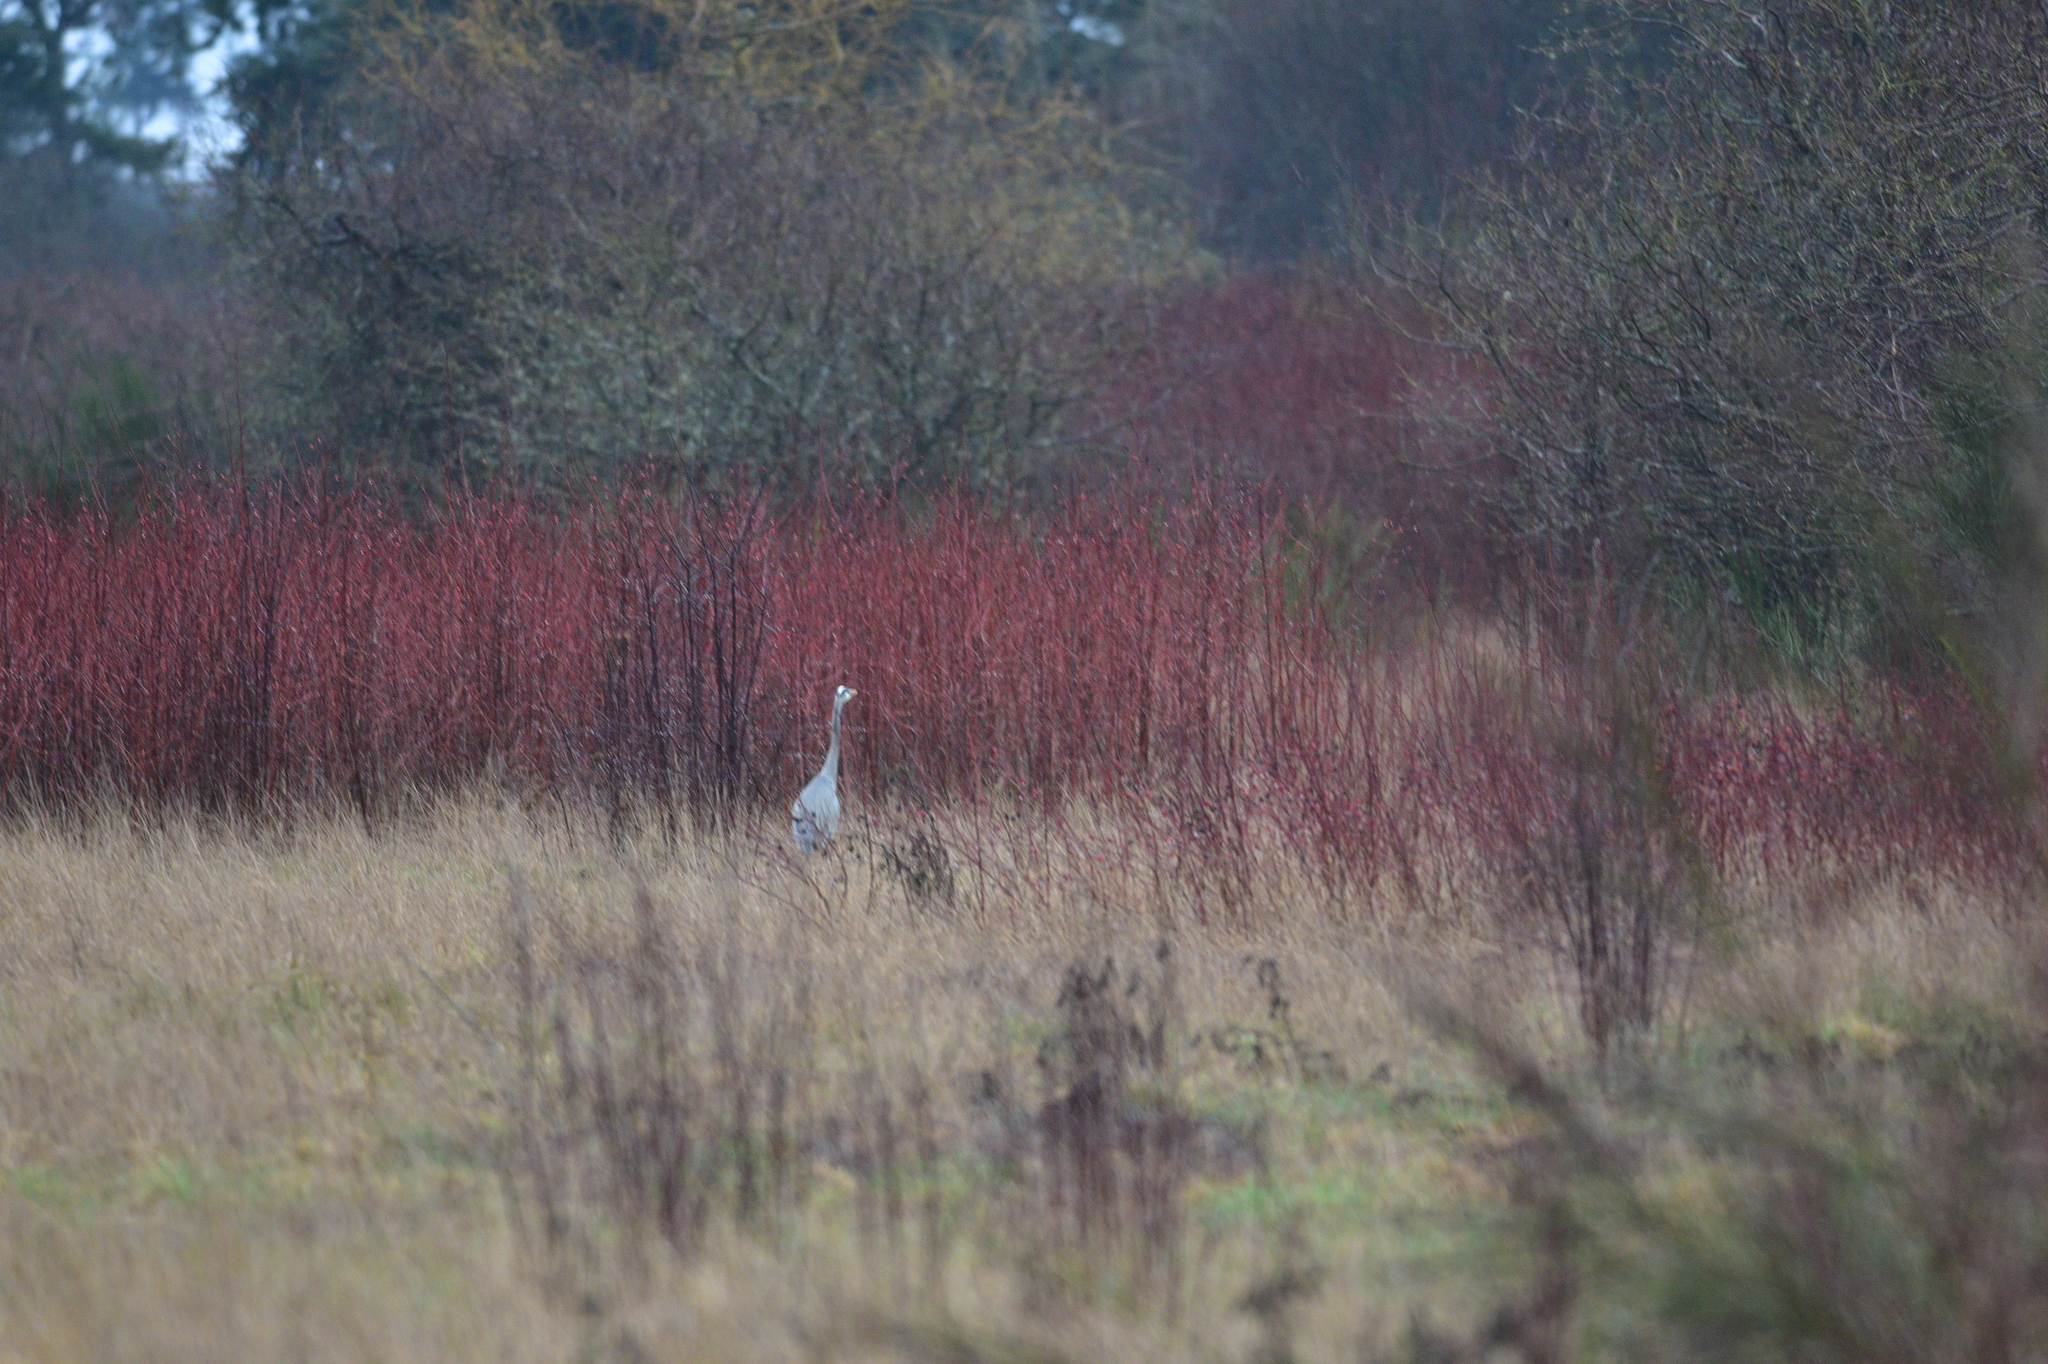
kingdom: Animalia
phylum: Chordata
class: Aves
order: Pelecaniformes
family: Ardeidae
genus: Ardea
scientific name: Ardea herodias
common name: Great blue heron
